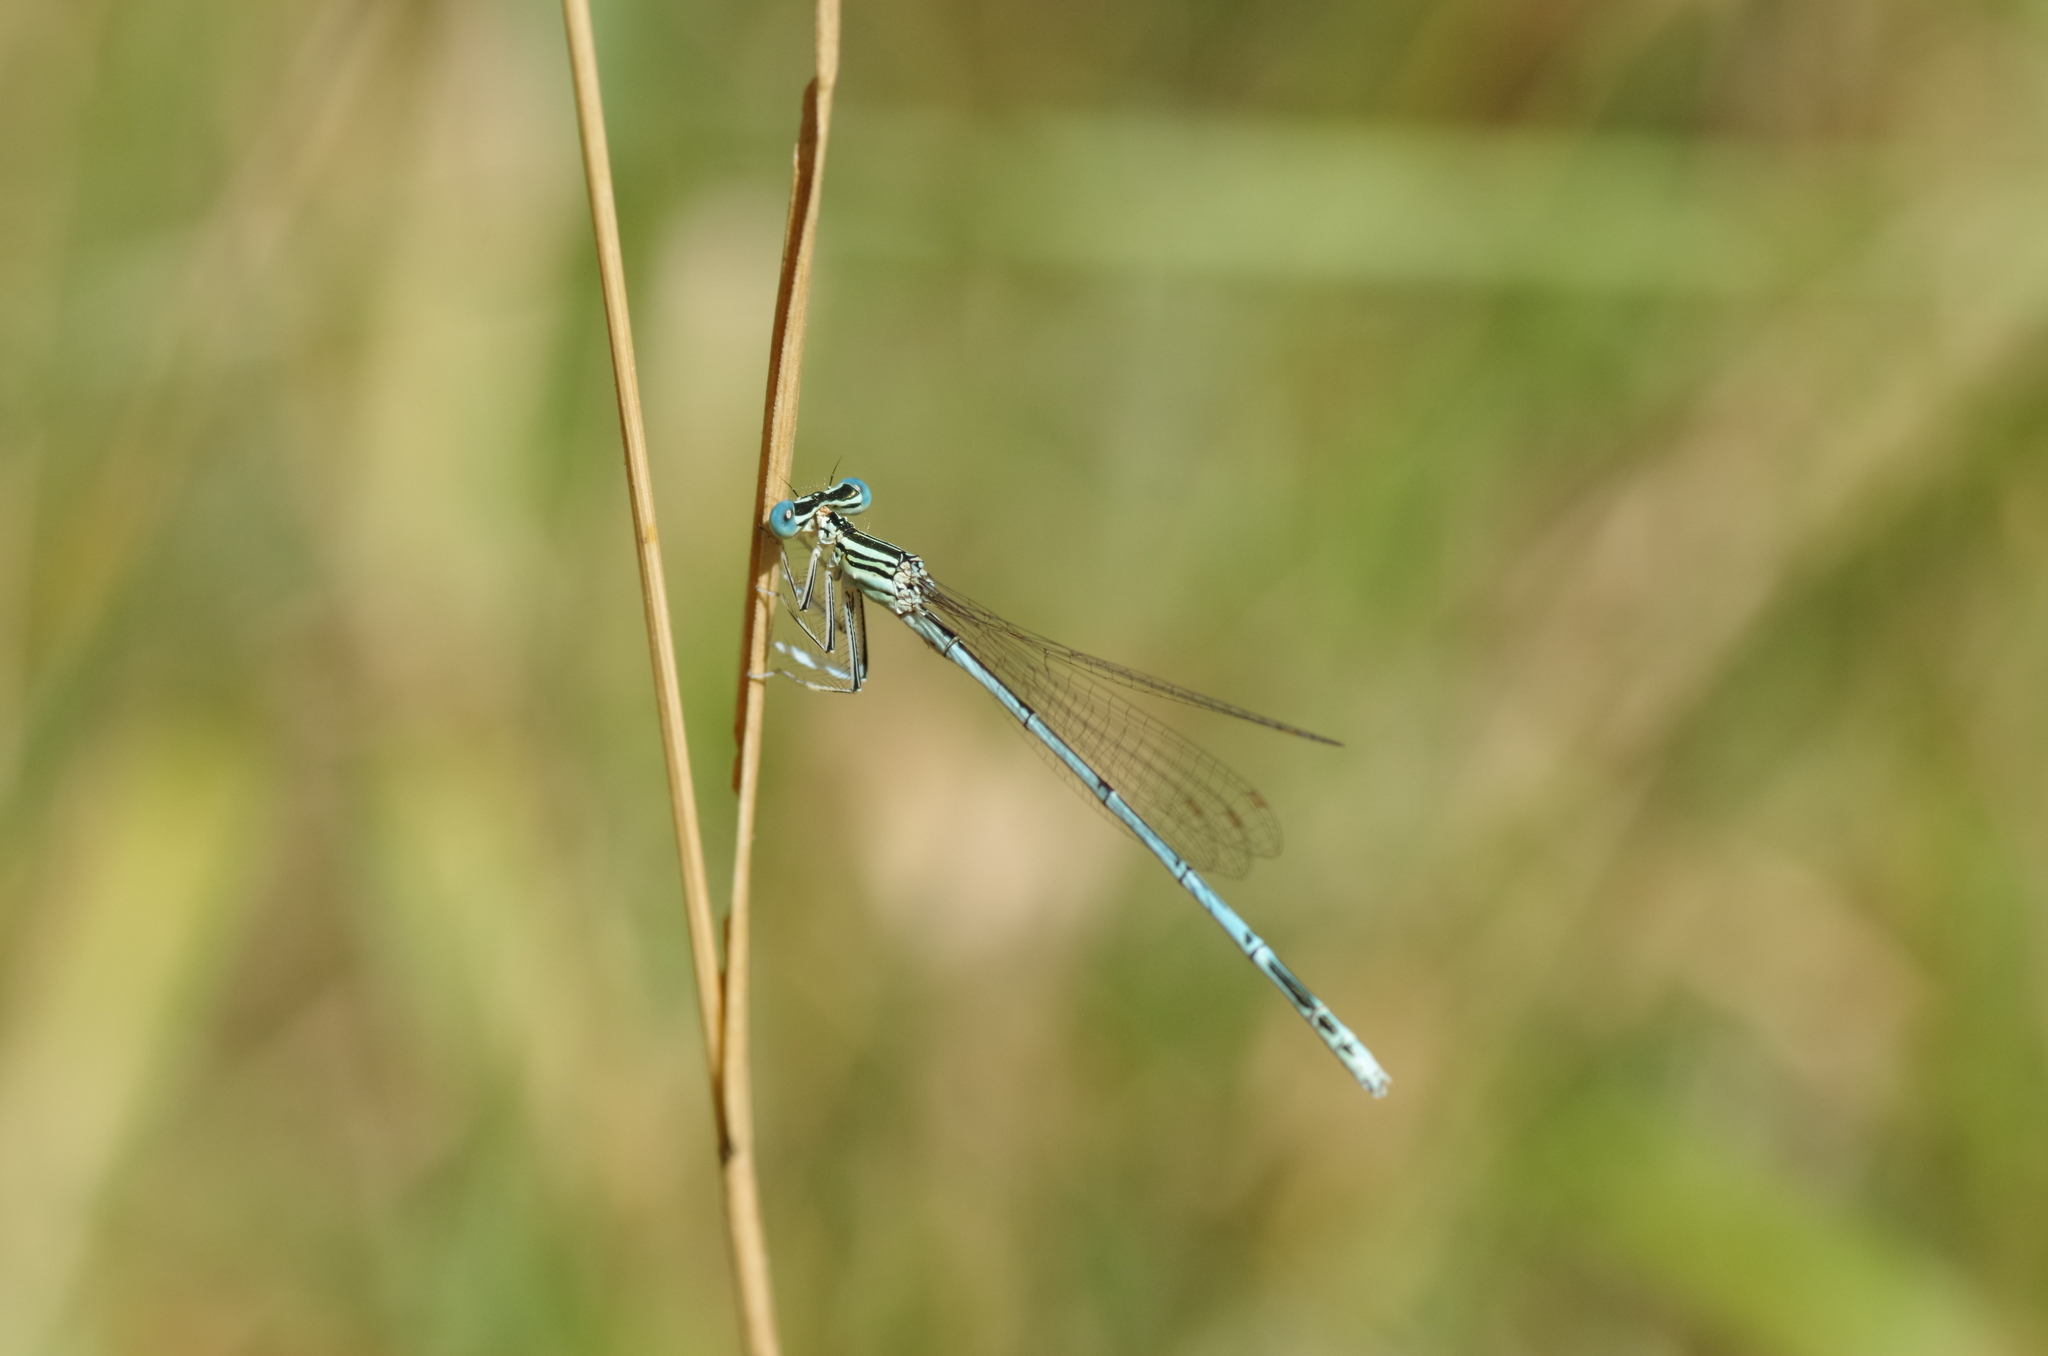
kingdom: Animalia
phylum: Arthropoda
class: Insecta
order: Odonata
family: Platycnemididae
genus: Platycnemis
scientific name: Platycnemis pennipes
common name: White-legged damselfly
